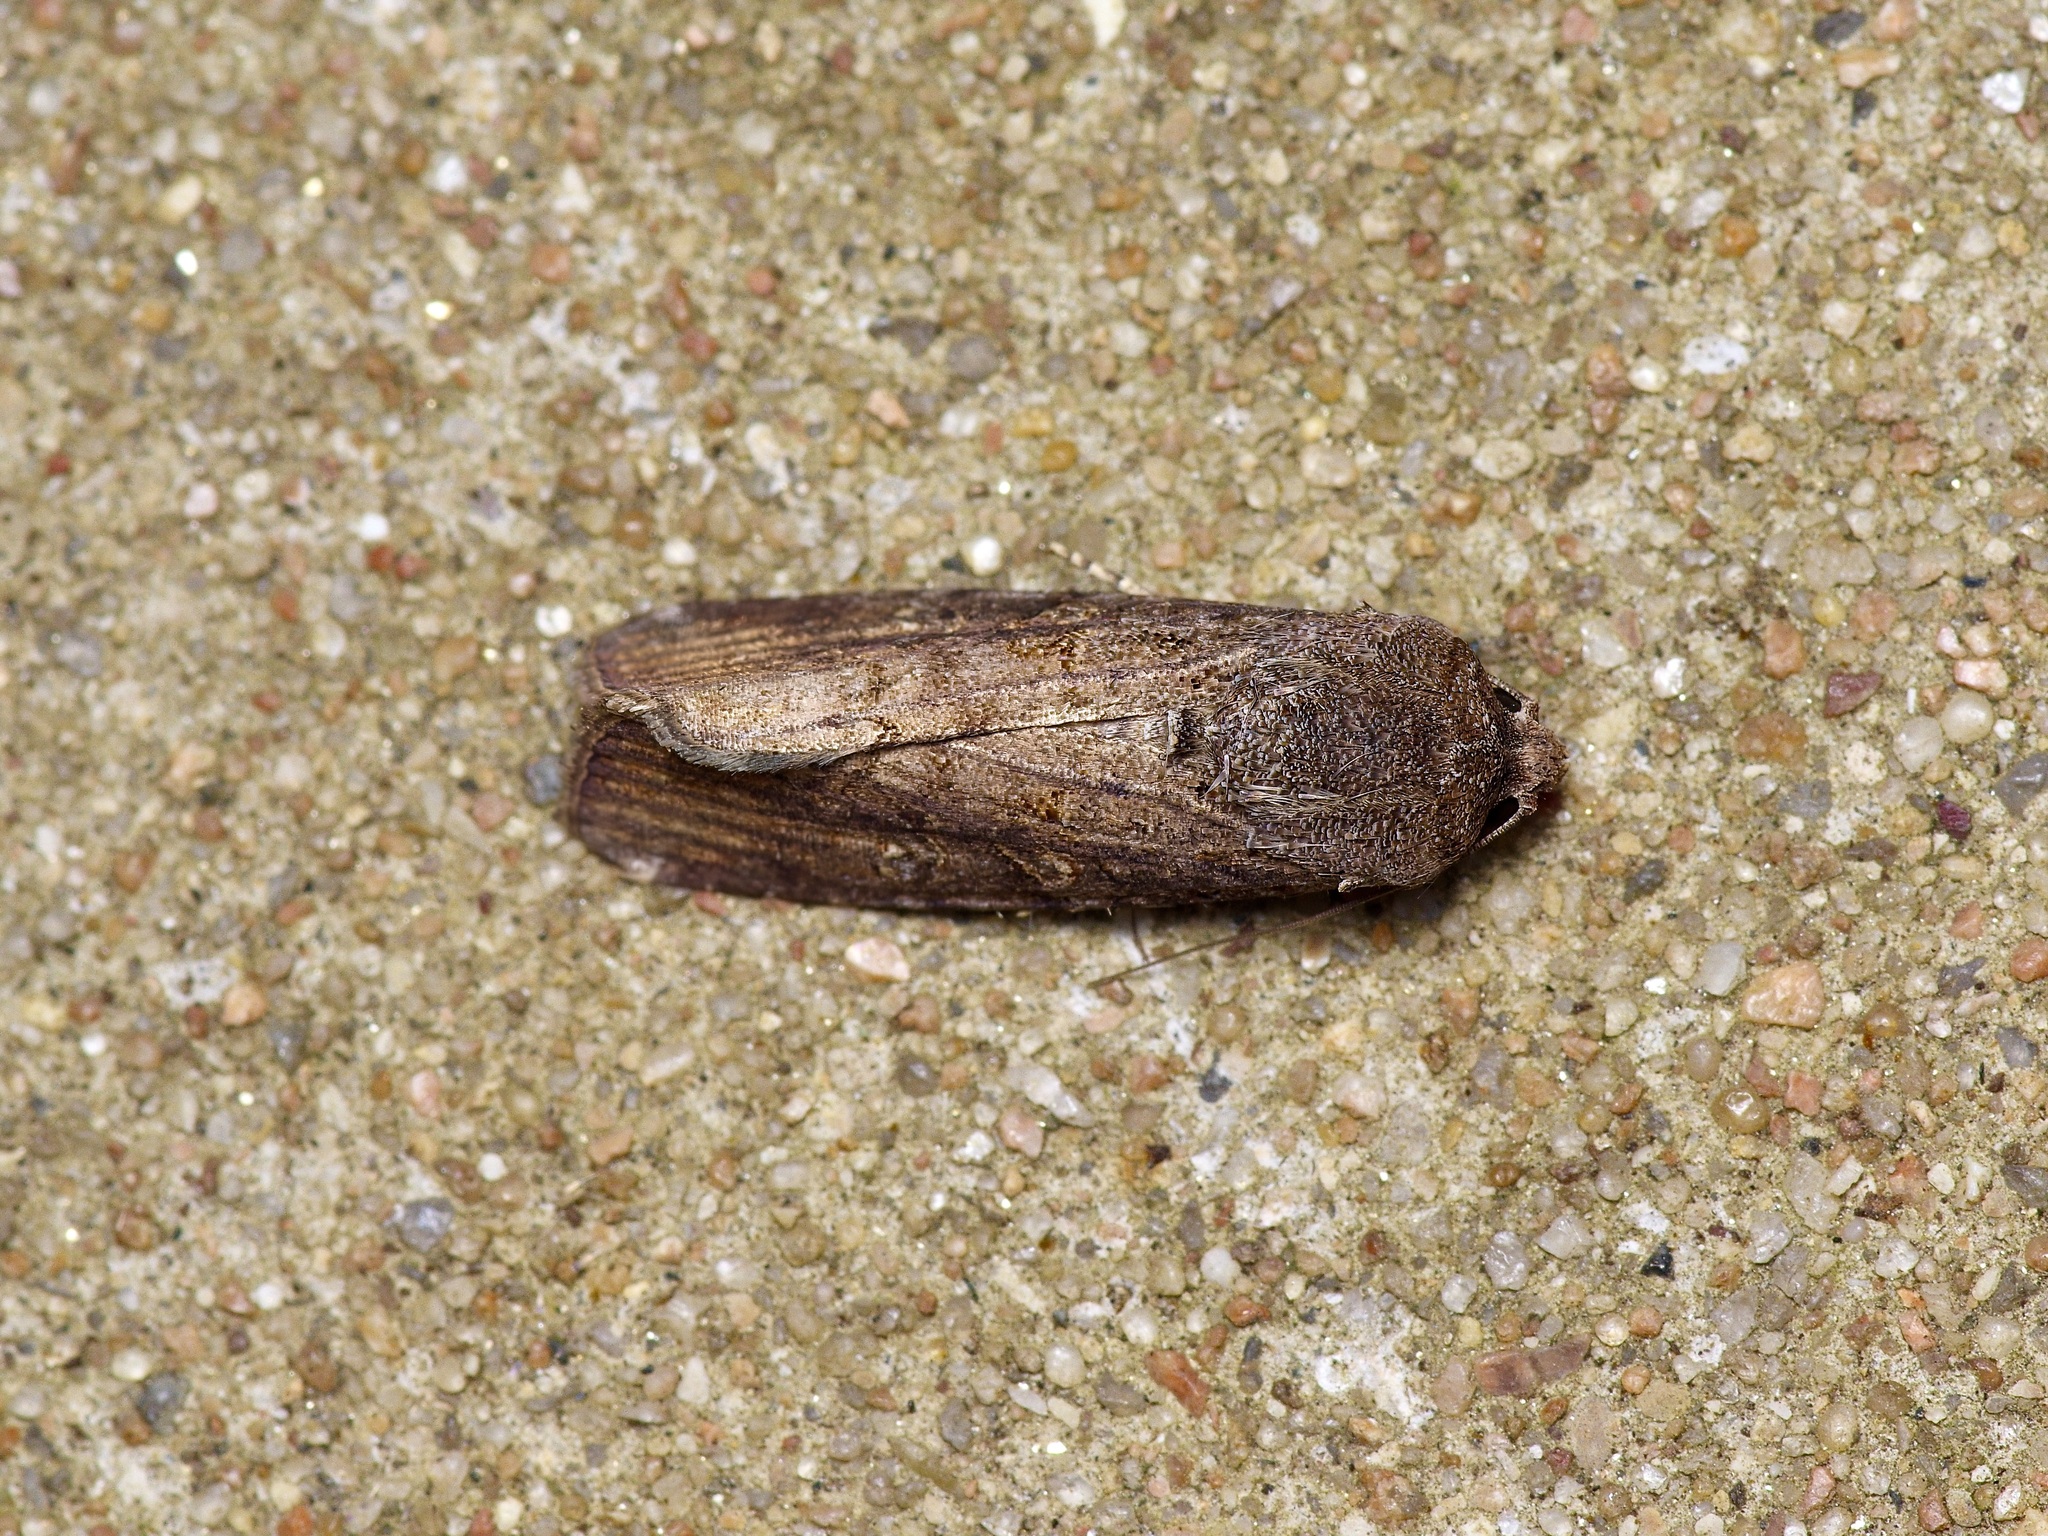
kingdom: Animalia
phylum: Arthropoda
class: Insecta
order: Lepidoptera
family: Noctuidae
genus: Spodoptera
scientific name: Spodoptera frugiperda
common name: Fall armyworm
